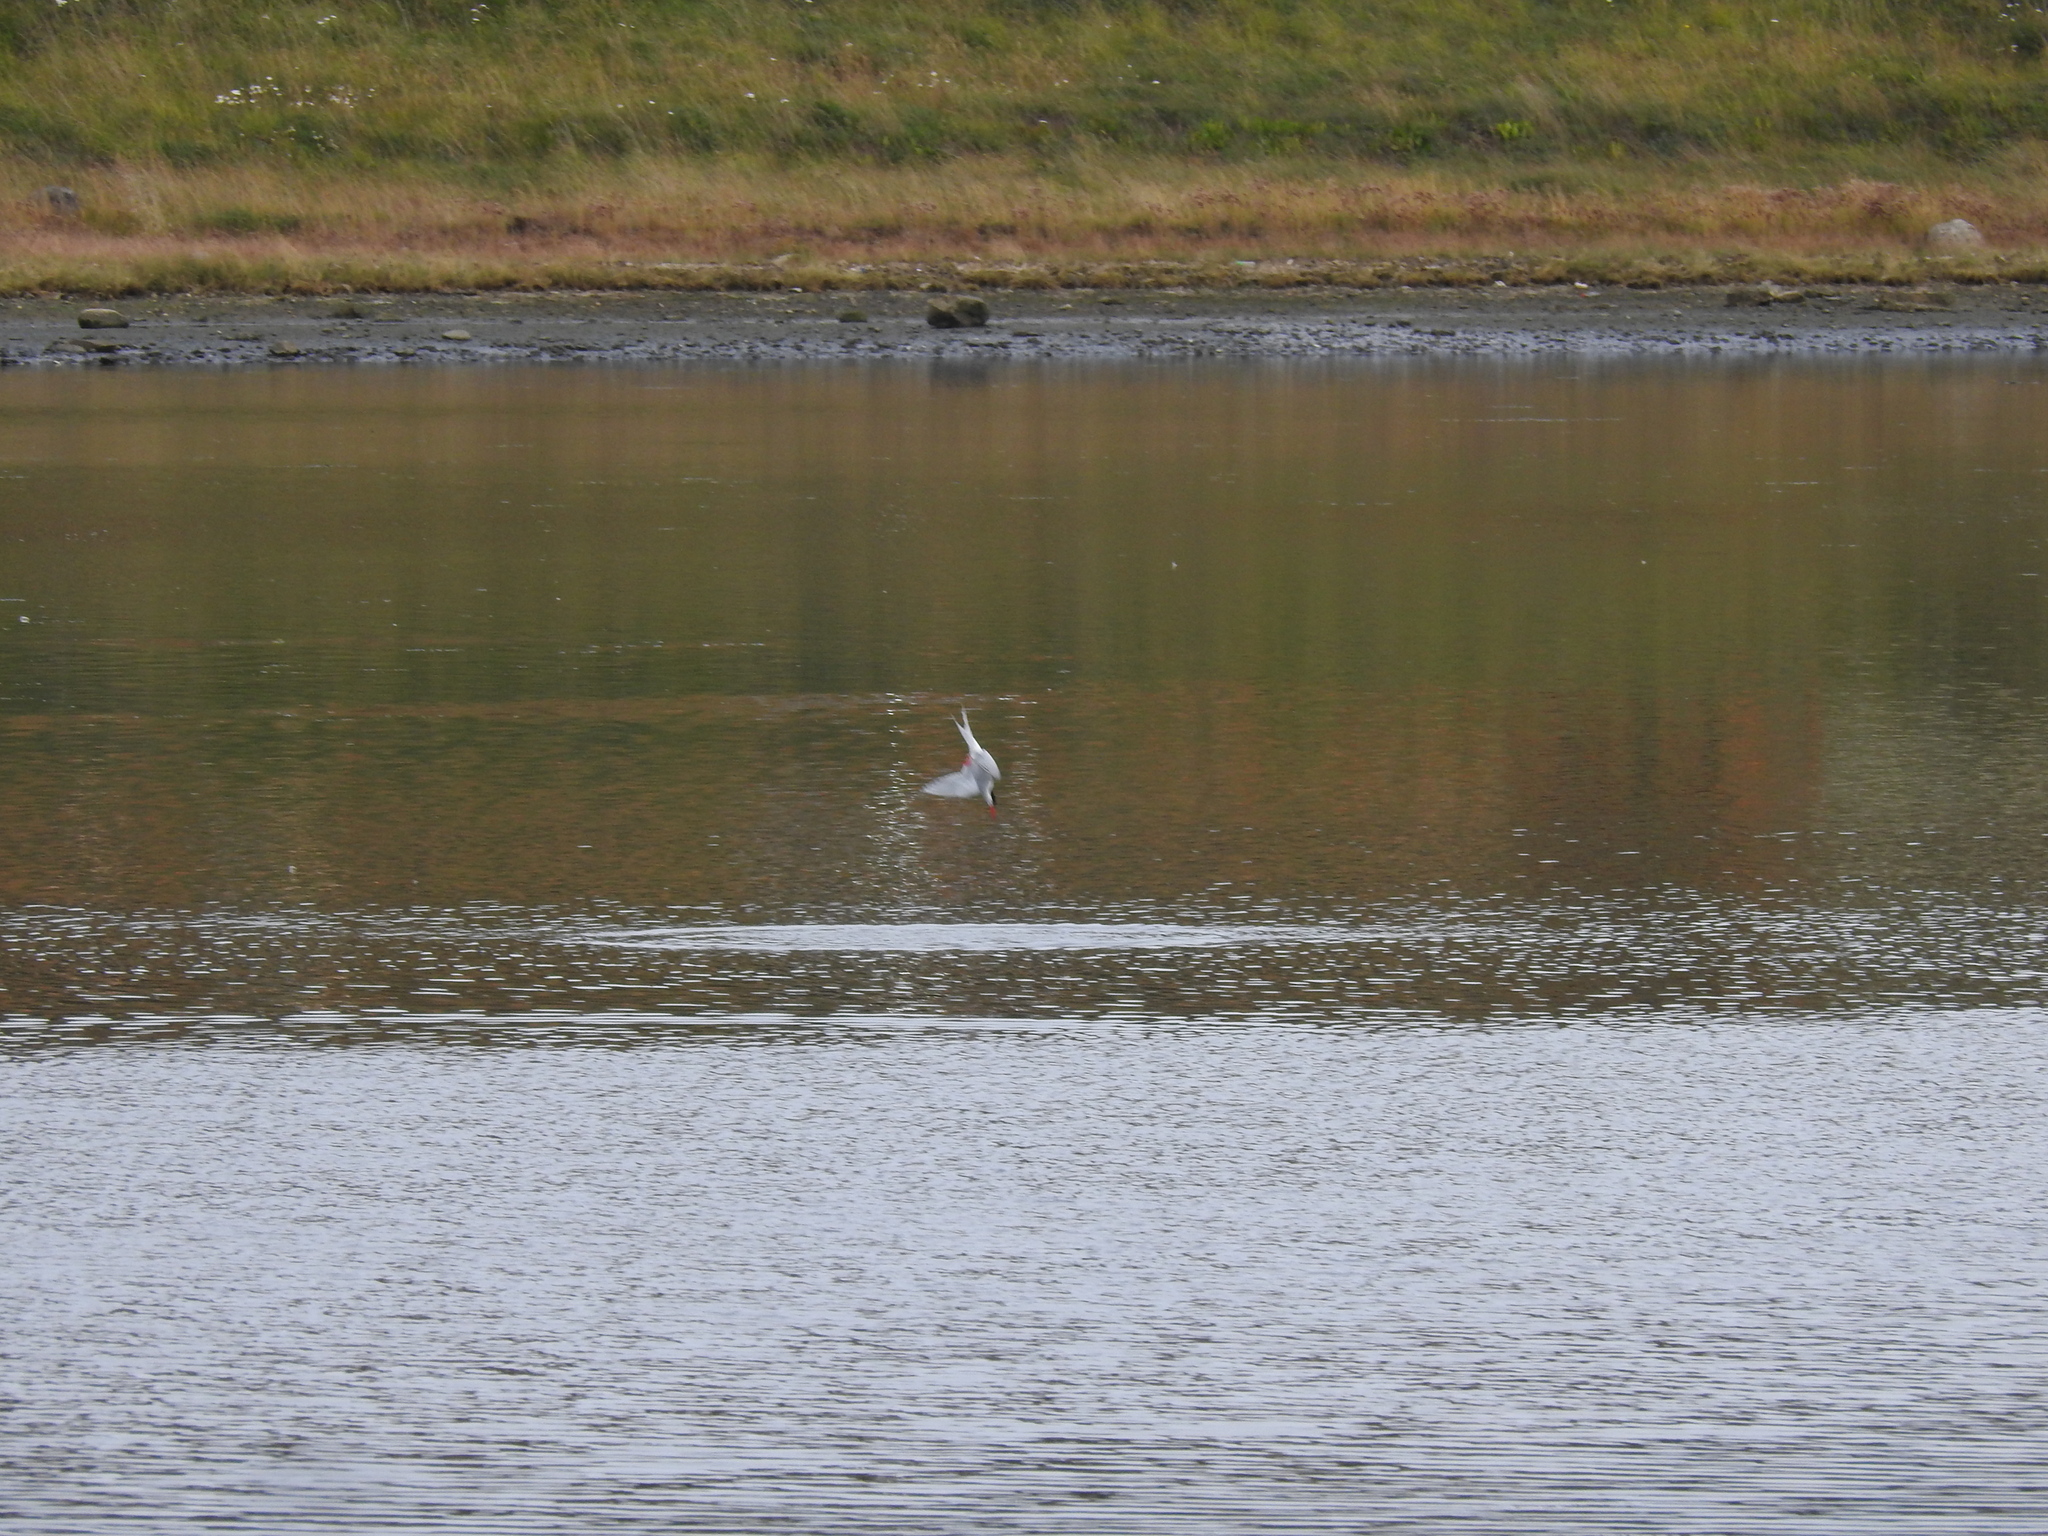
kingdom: Animalia
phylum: Chordata
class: Aves
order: Charadriiformes
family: Laridae
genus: Sterna
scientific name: Sterna hirundinacea
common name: South american tern
